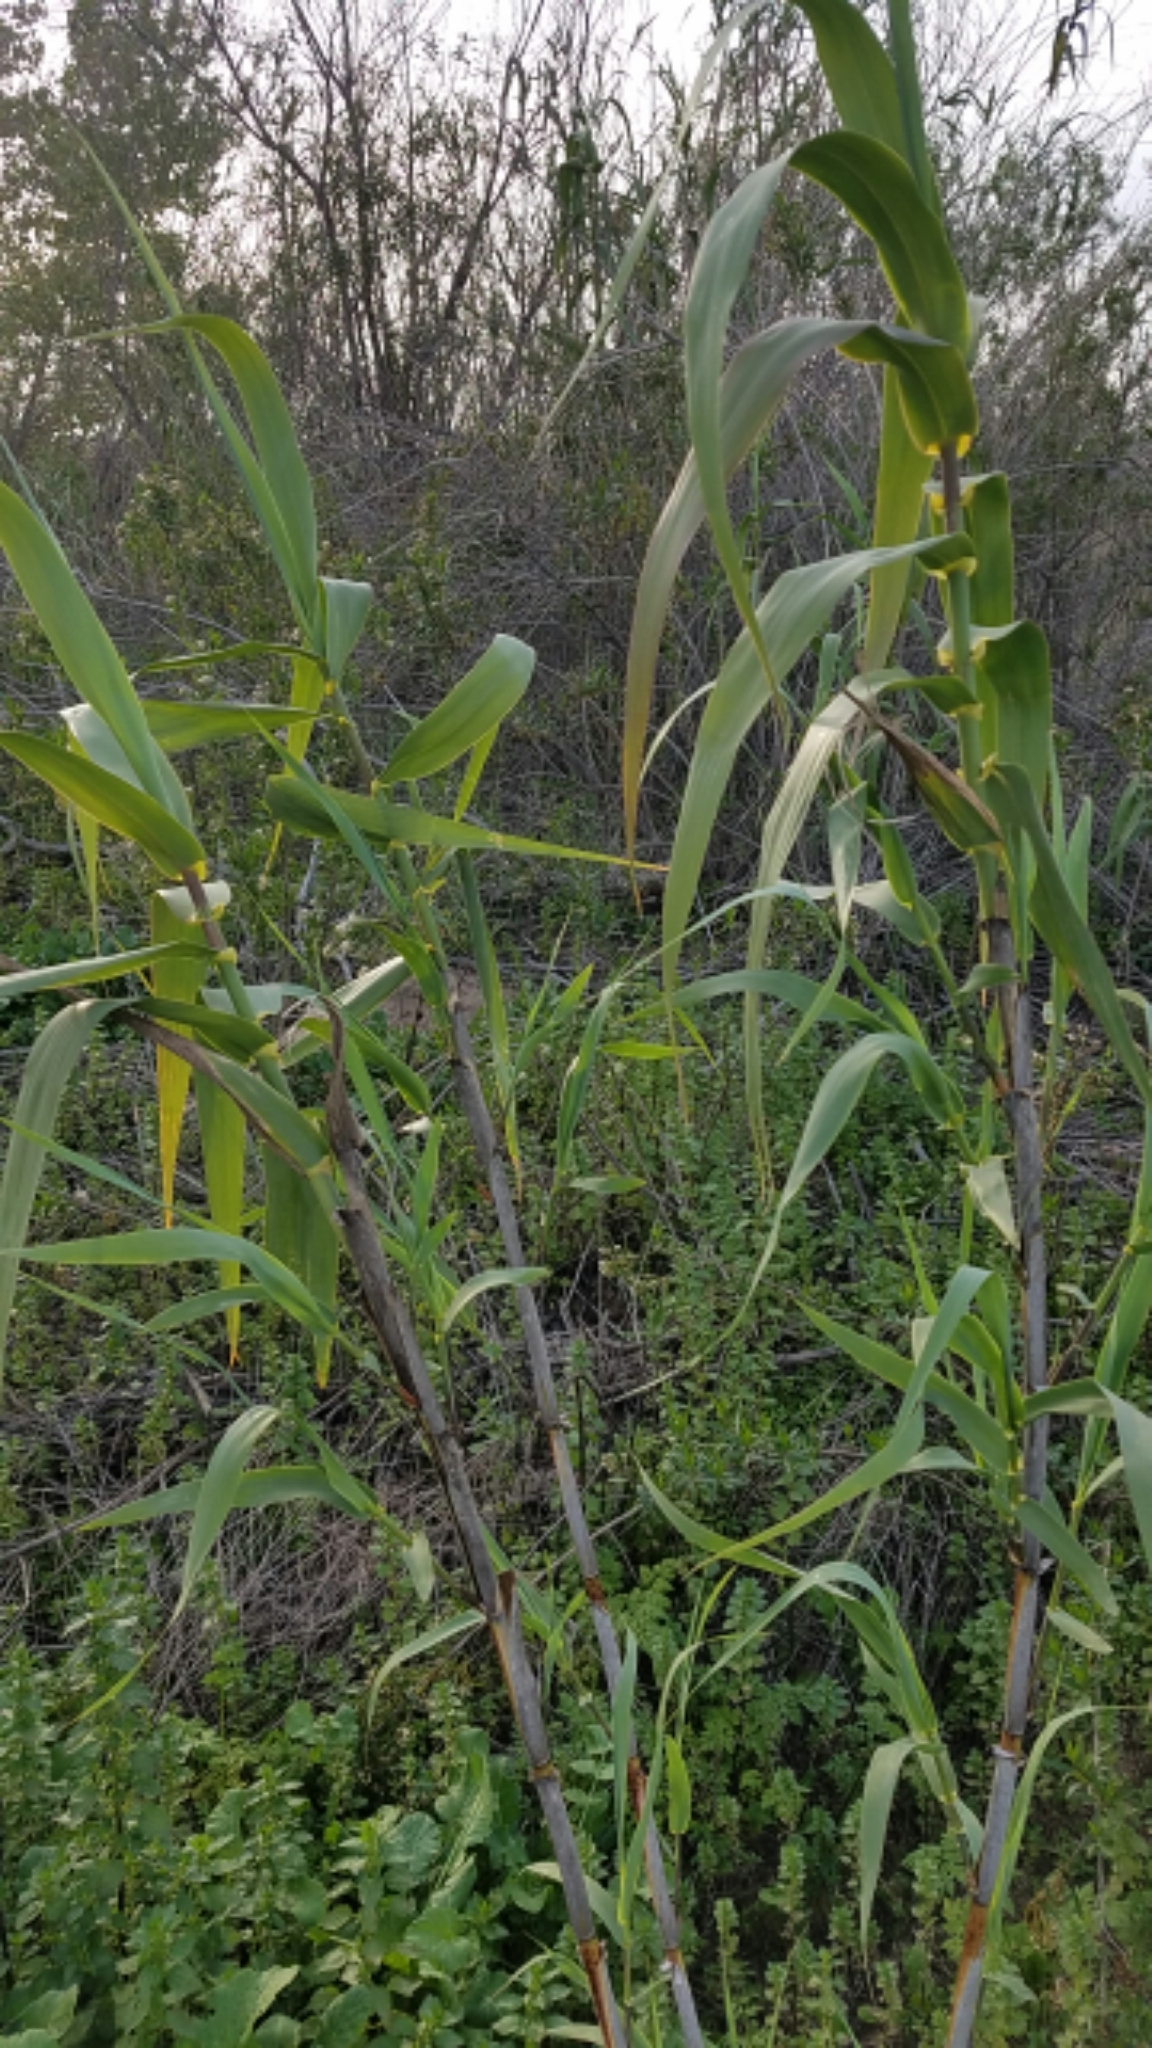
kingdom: Plantae
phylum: Tracheophyta
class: Liliopsida
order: Poales
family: Poaceae
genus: Arundo
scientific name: Arundo donax
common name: Giant reed
